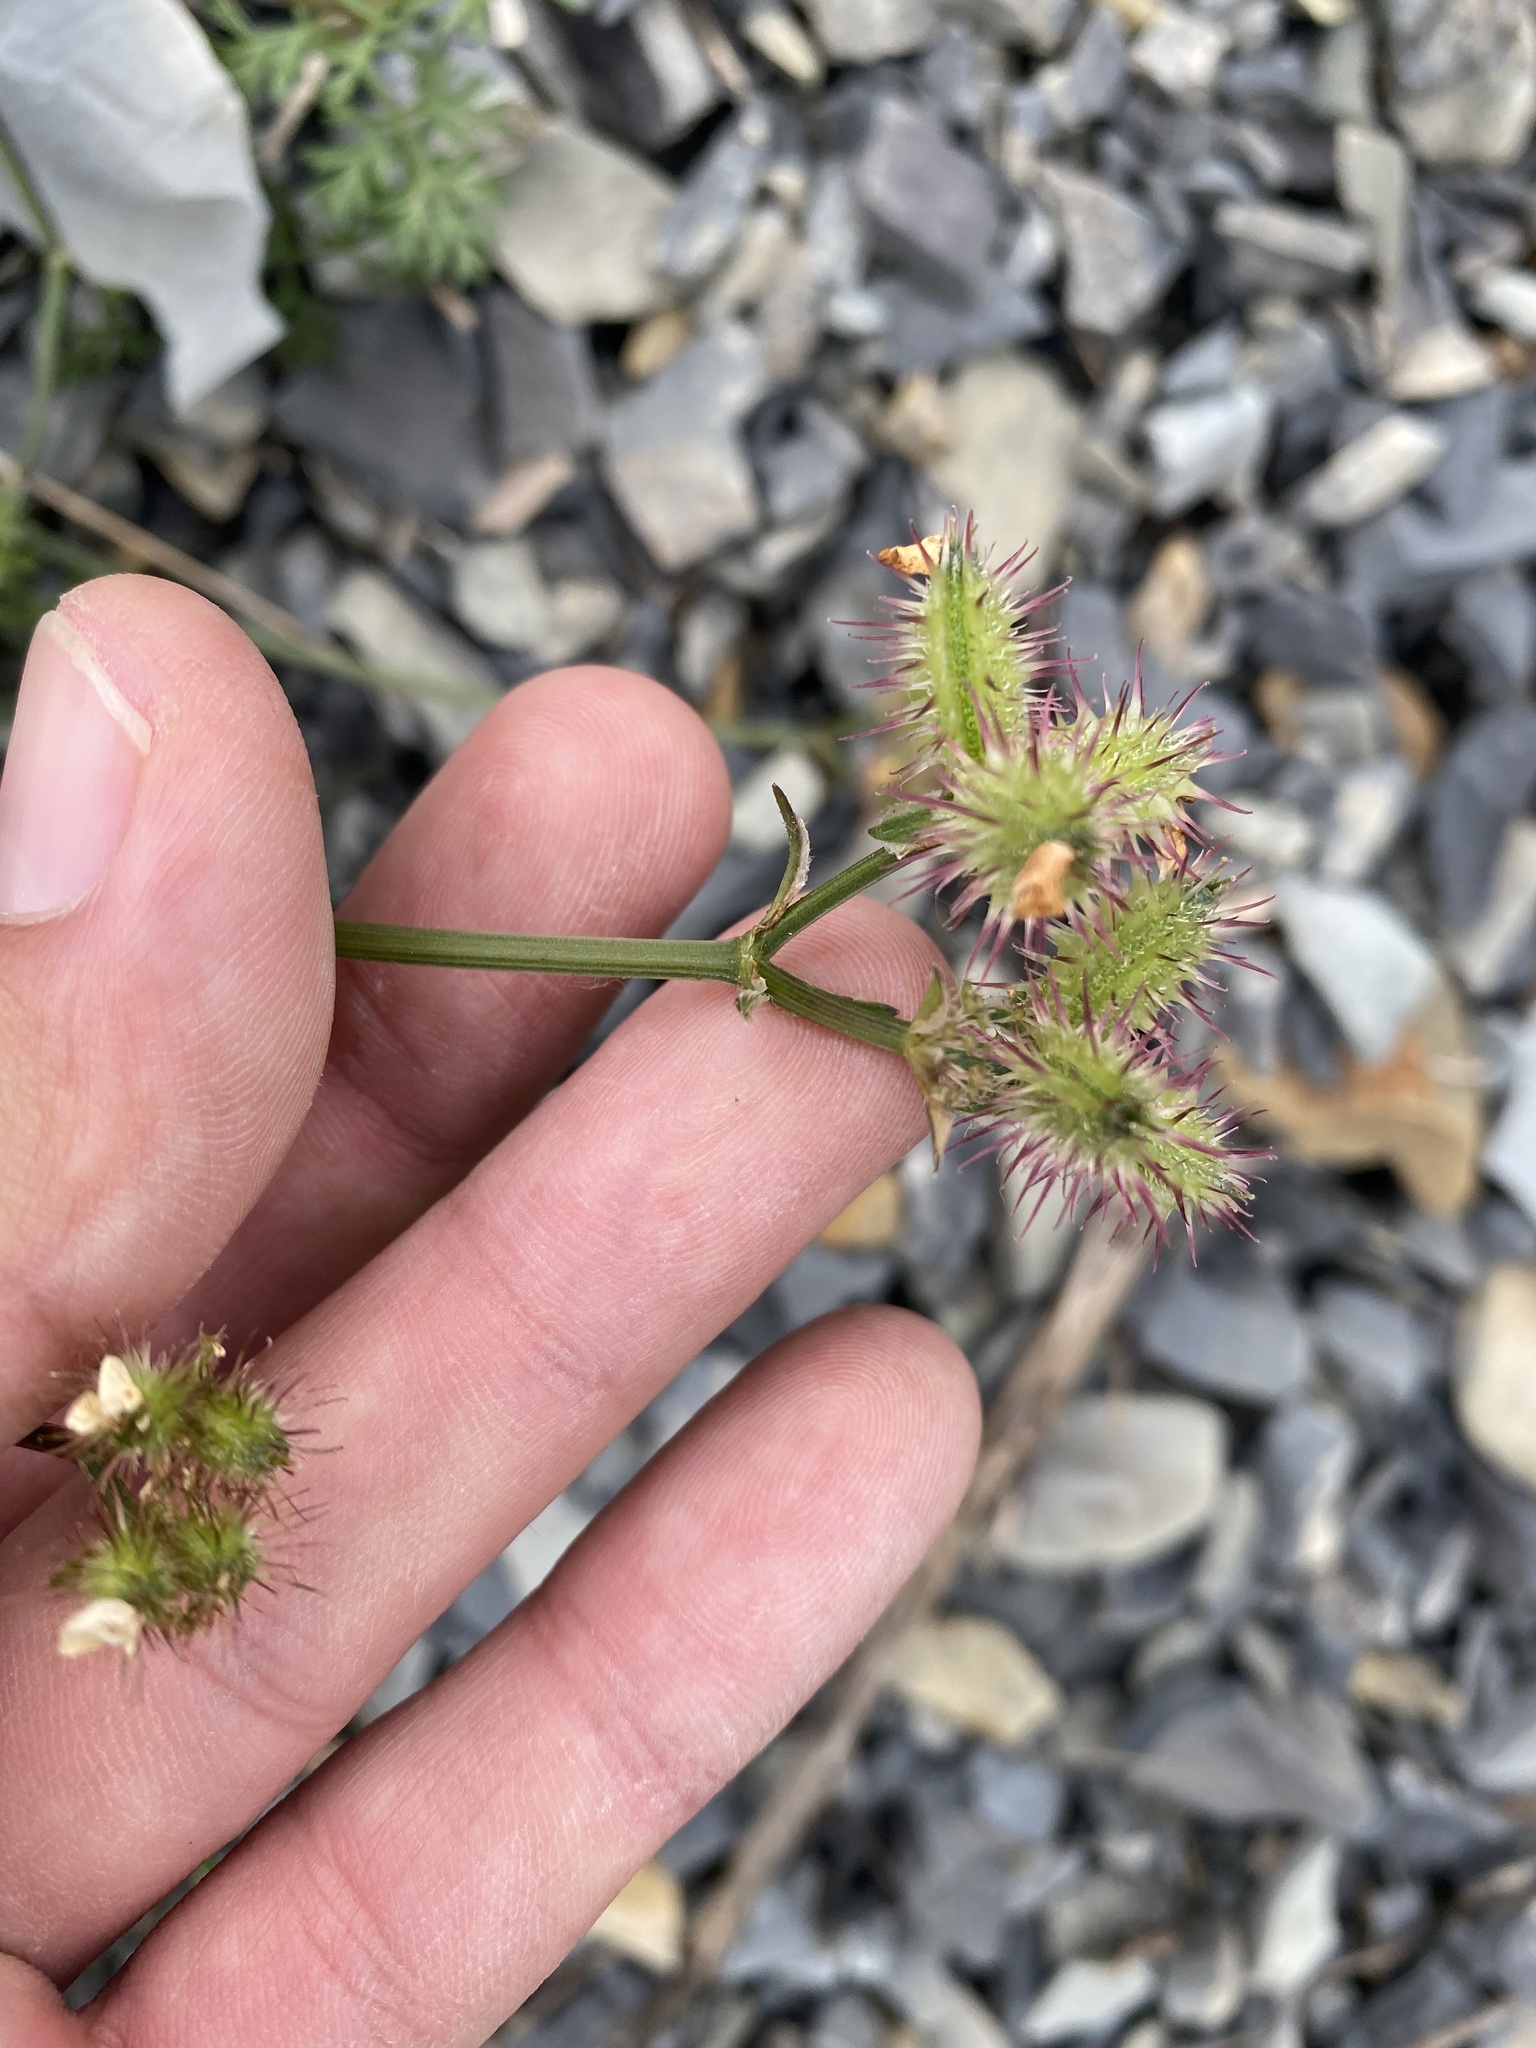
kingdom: Plantae
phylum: Tracheophyta
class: Magnoliopsida
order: Apiales
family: Apiaceae
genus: Orlaya
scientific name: Orlaya daucoides
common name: Flat-fruit orlaya
